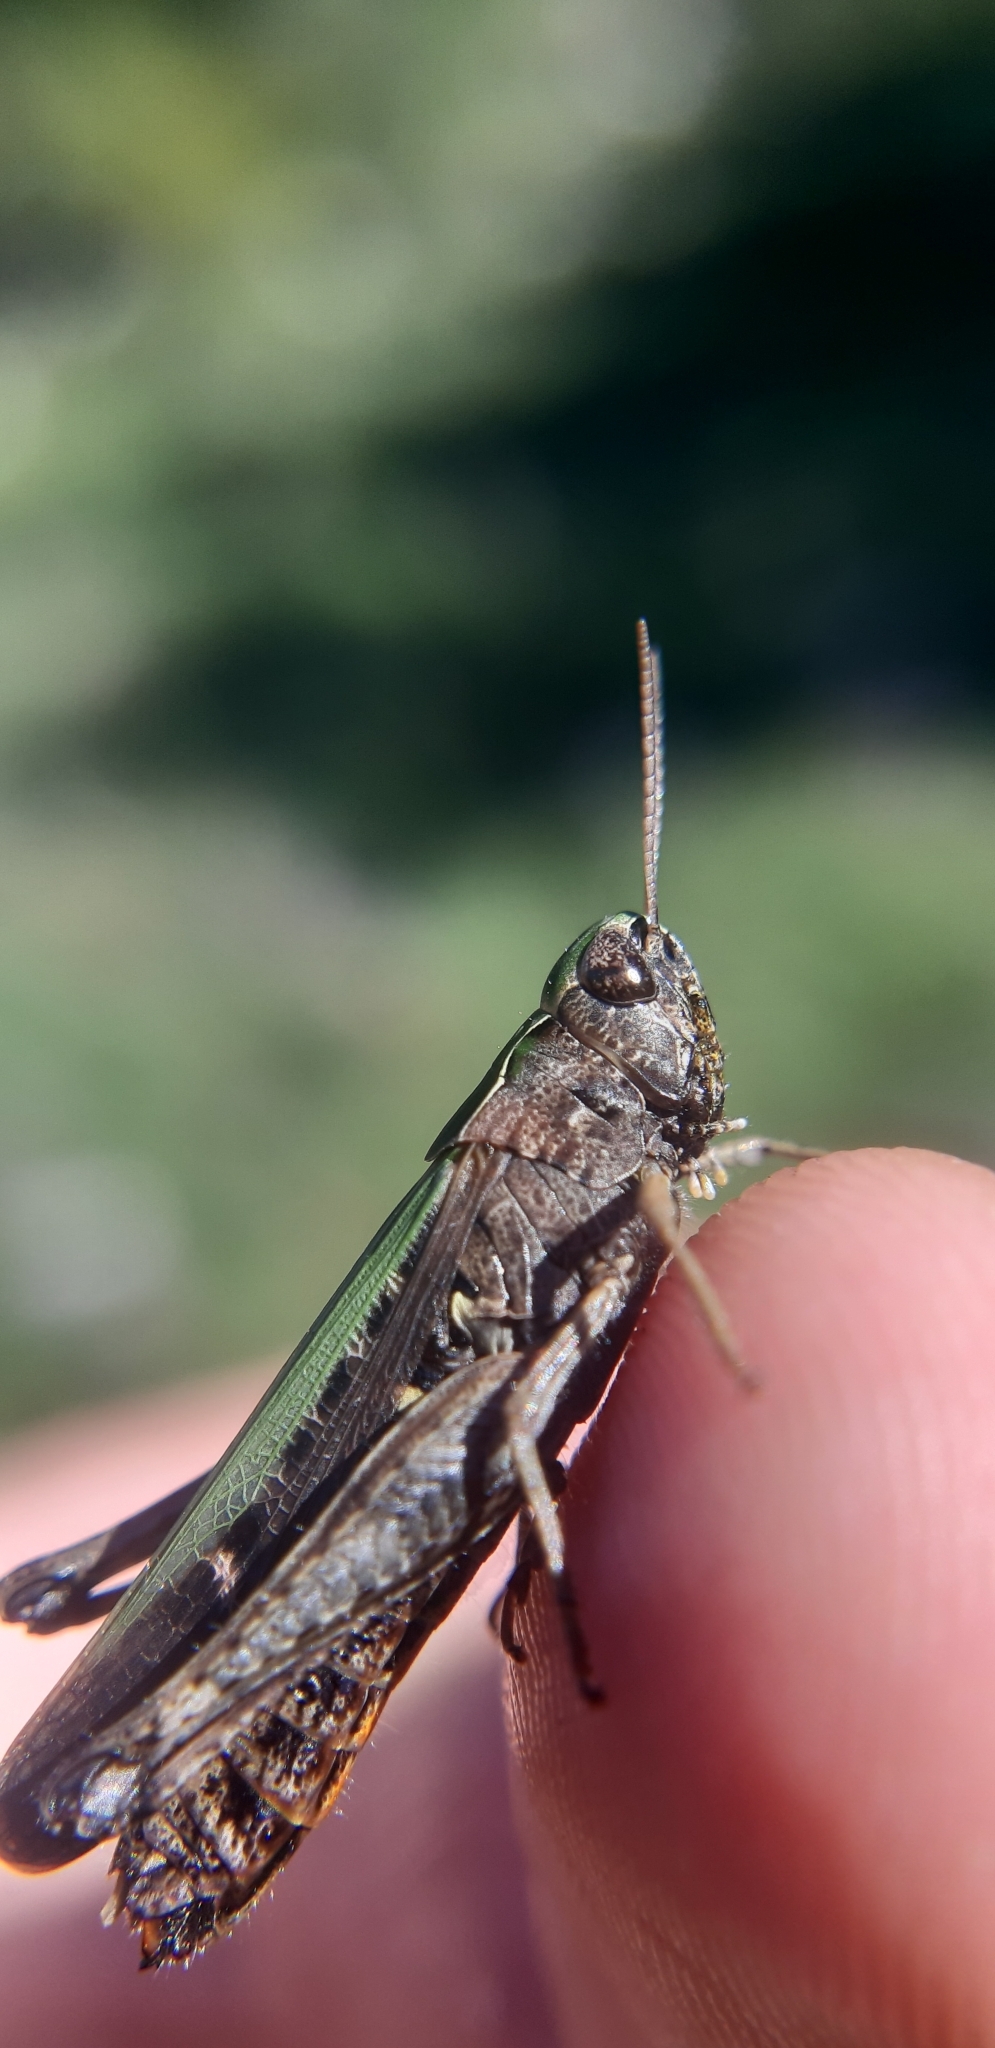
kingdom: Animalia
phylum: Arthropoda
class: Insecta
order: Orthoptera
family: Acrididae
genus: Omocestus
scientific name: Omocestus rufipes
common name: Woodland grasshopper
